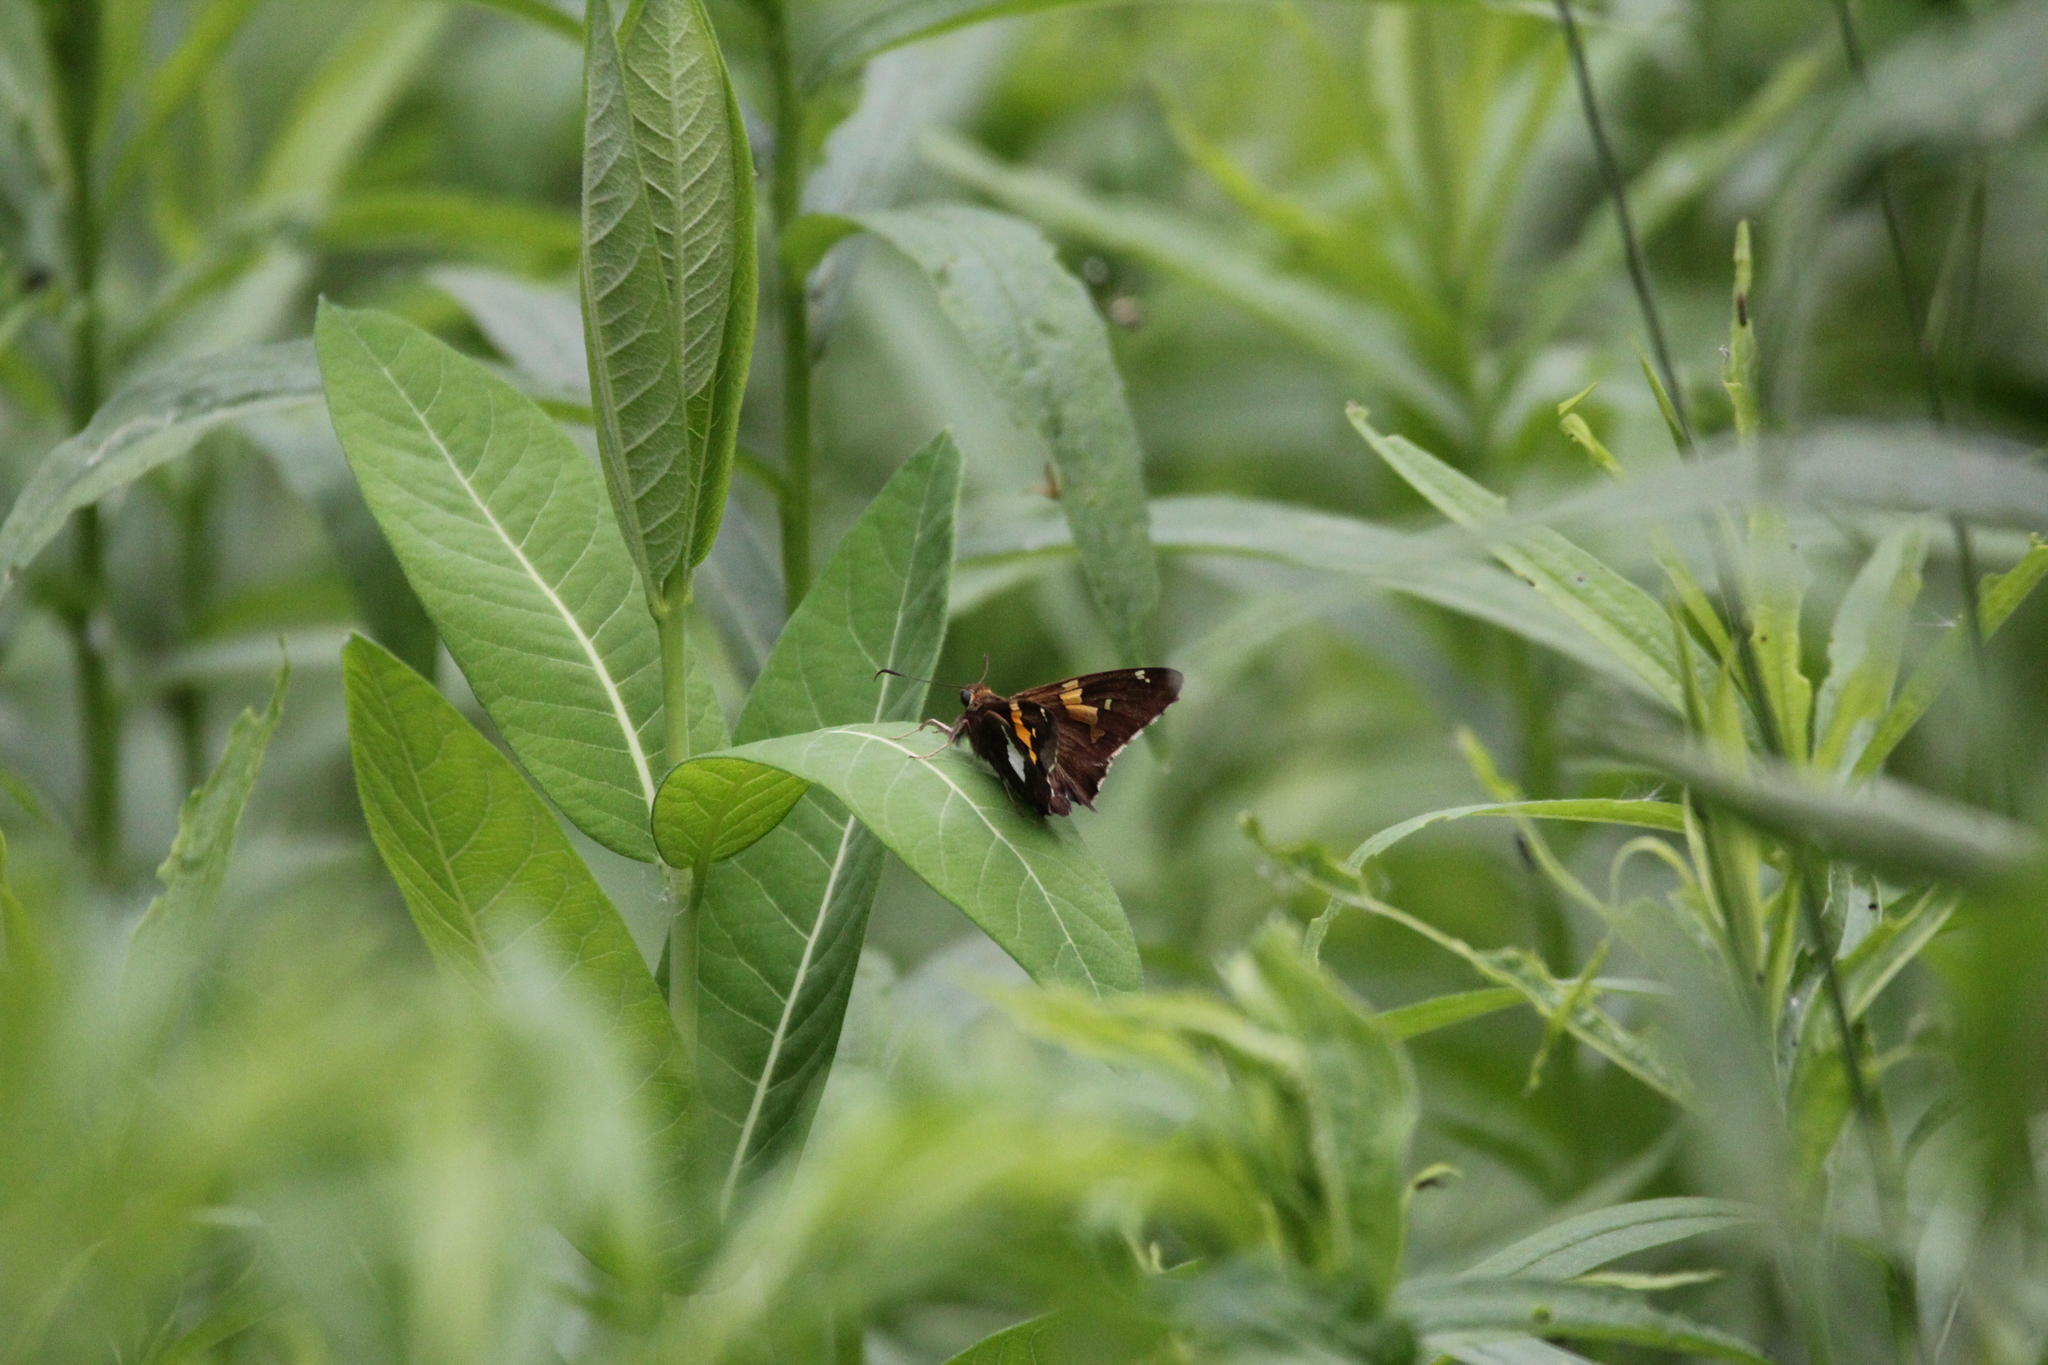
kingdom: Animalia
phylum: Arthropoda
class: Insecta
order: Lepidoptera
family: Hesperiidae
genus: Epargyreus
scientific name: Epargyreus clarus
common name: Silver-spotted skipper
